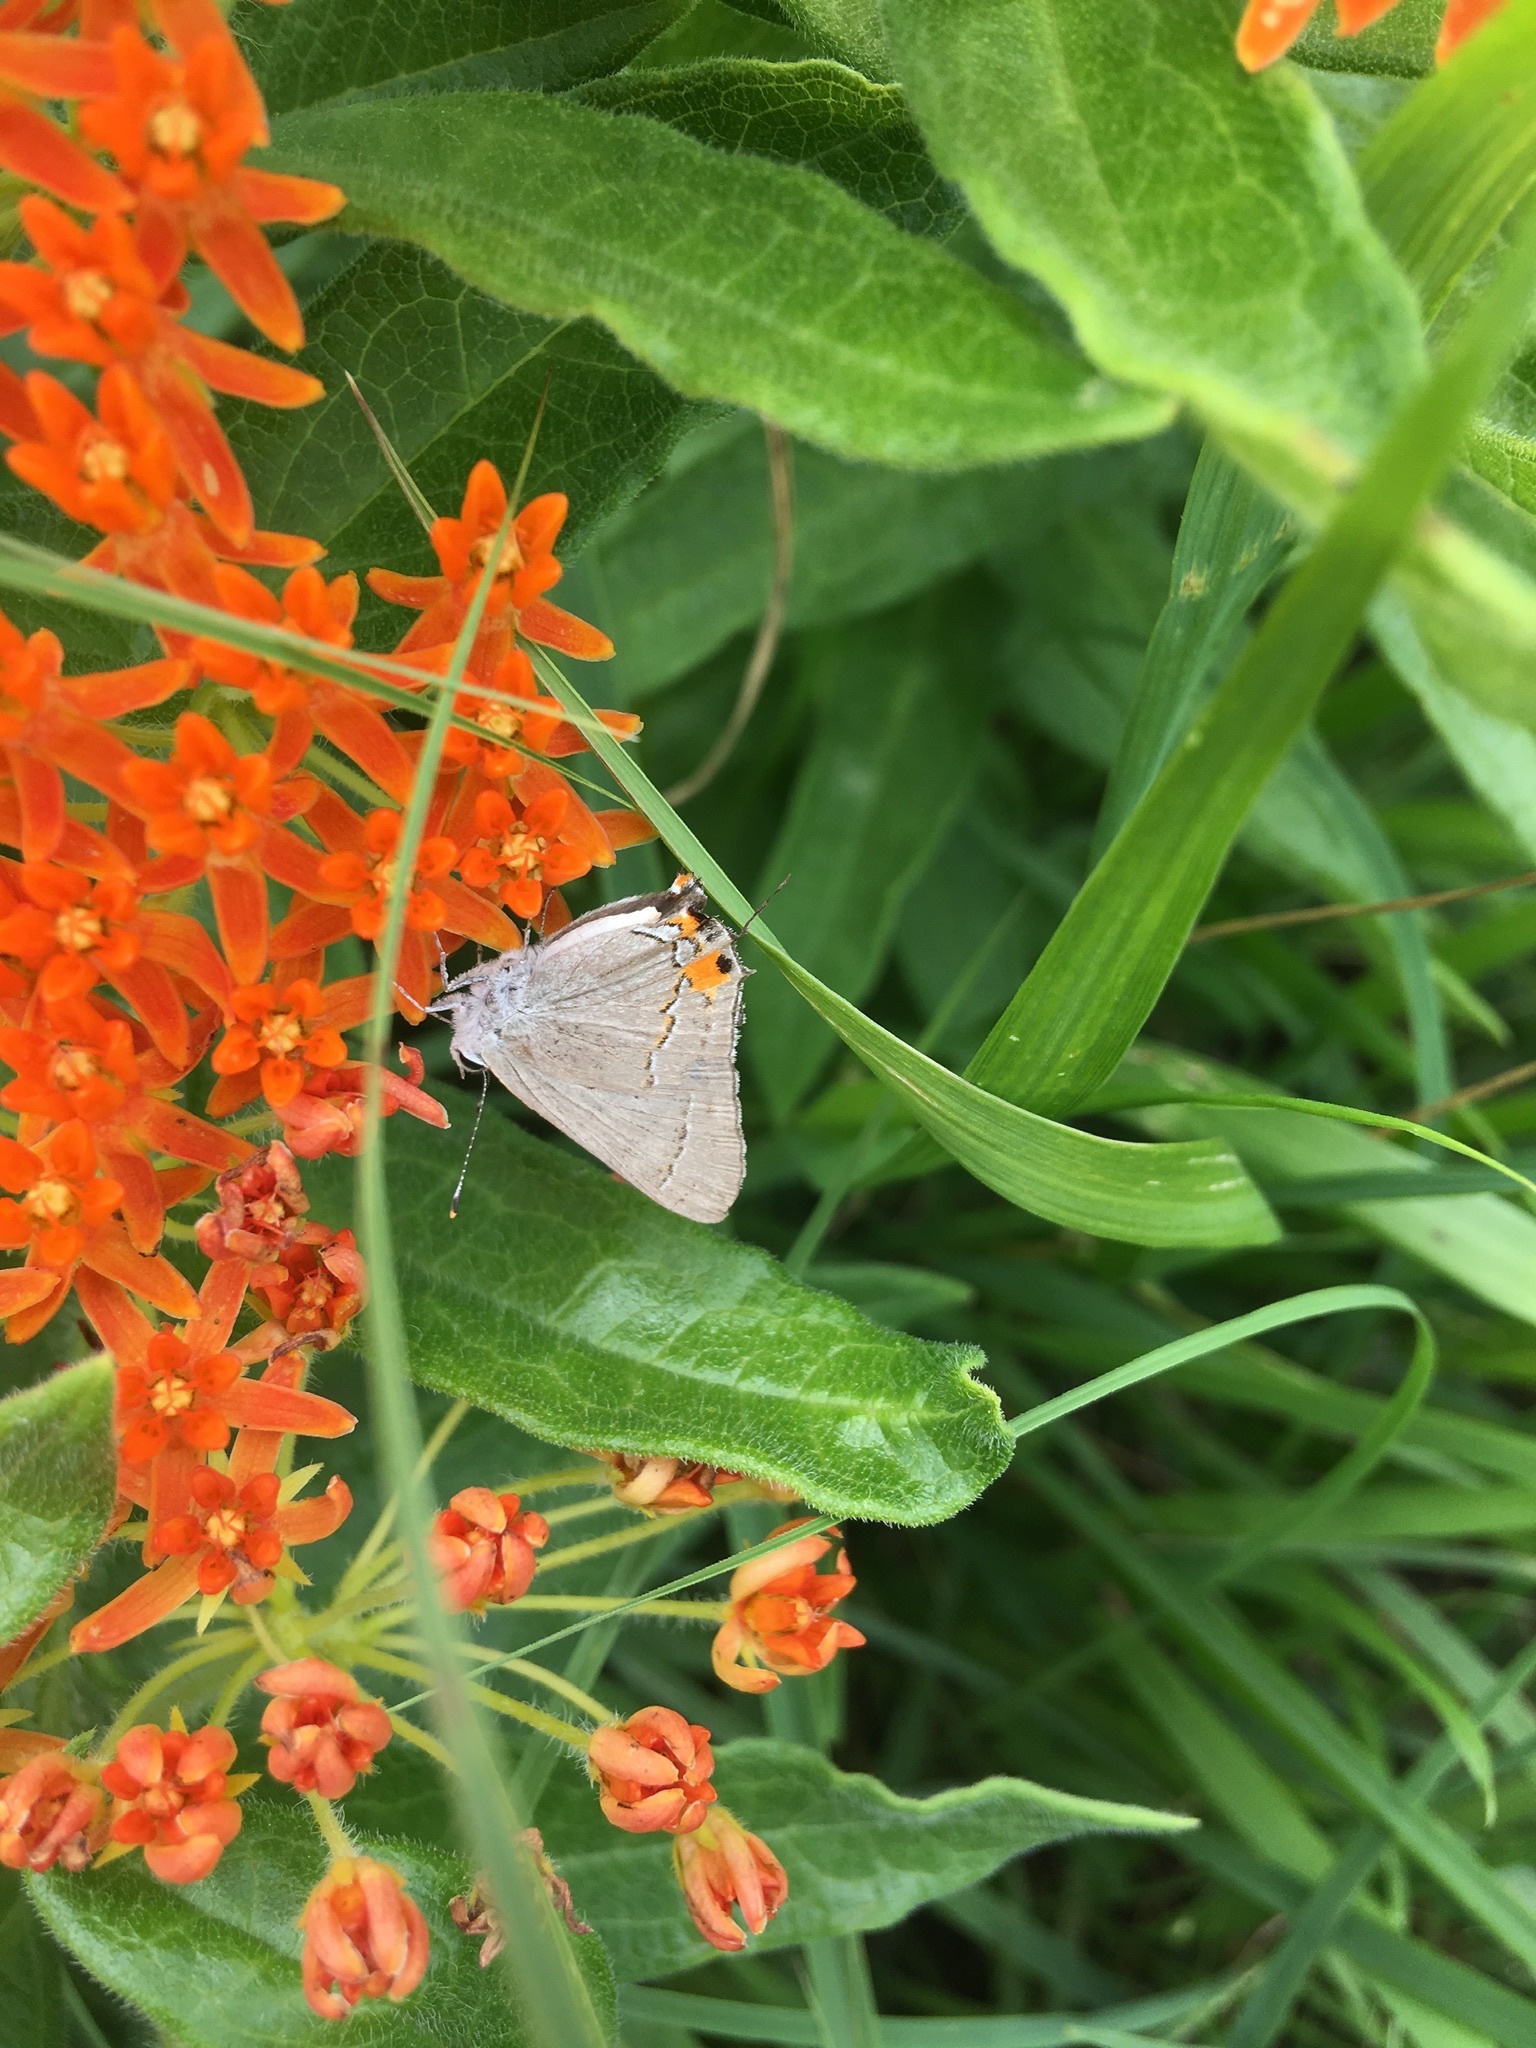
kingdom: Animalia
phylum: Arthropoda
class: Insecta
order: Lepidoptera
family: Lycaenidae
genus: Strymon
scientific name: Strymon melinus
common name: Gray hairstreak
